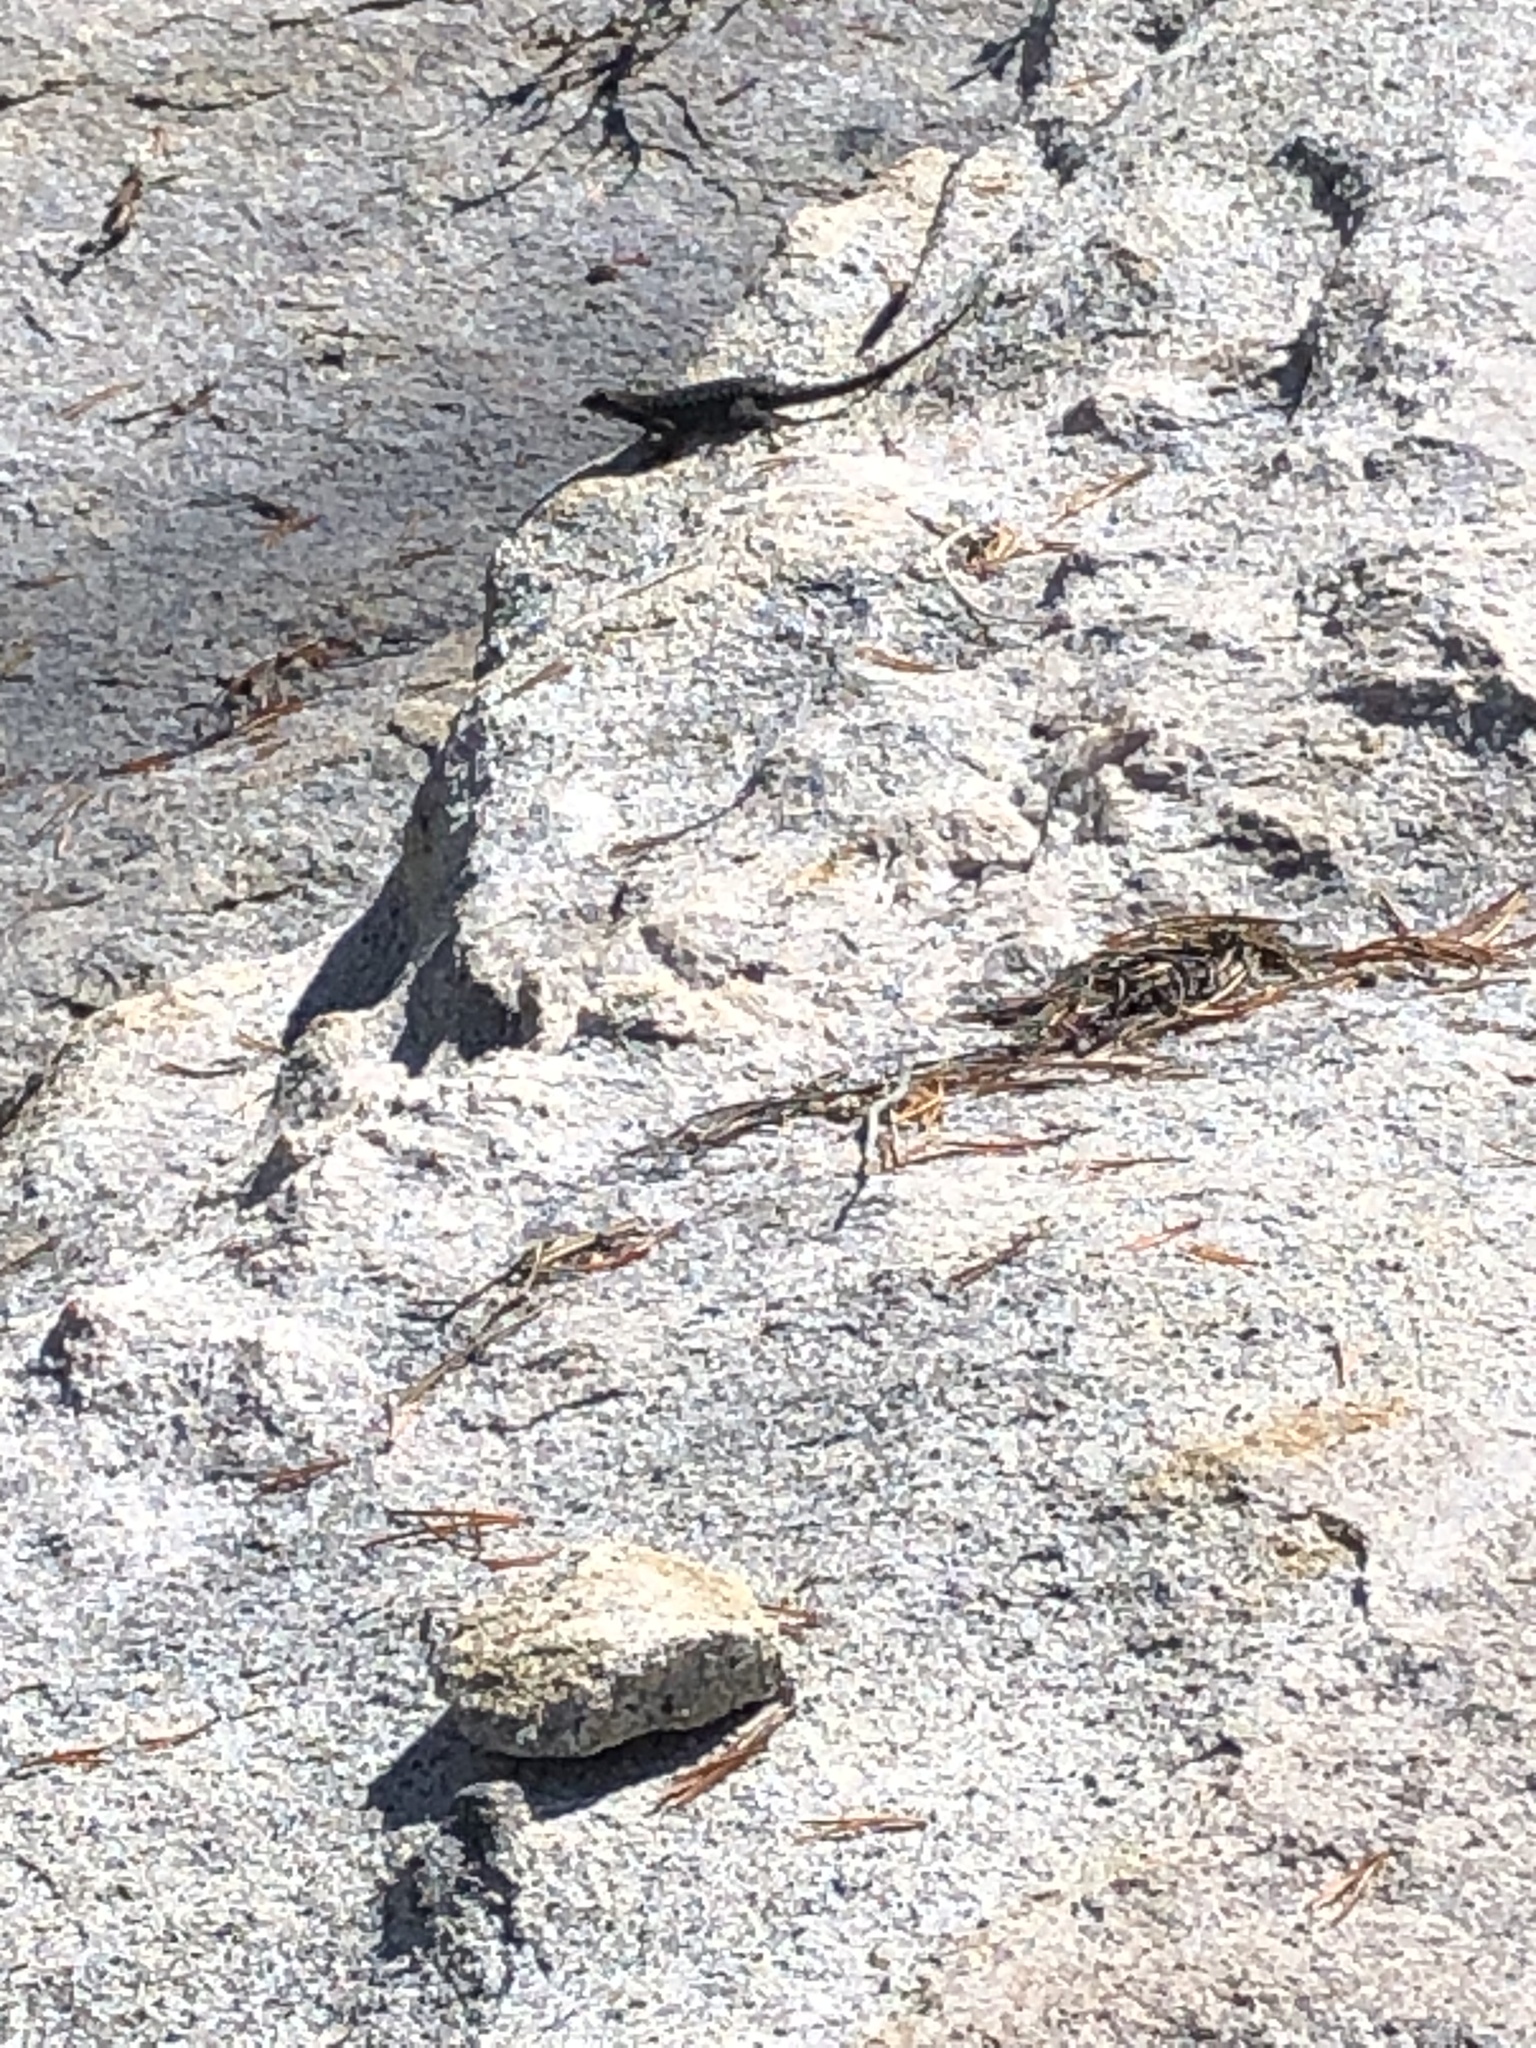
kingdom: Animalia
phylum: Chordata
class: Squamata
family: Phrynosomatidae
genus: Sceloporus
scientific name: Sceloporus occidentalis
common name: Western fence lizard
